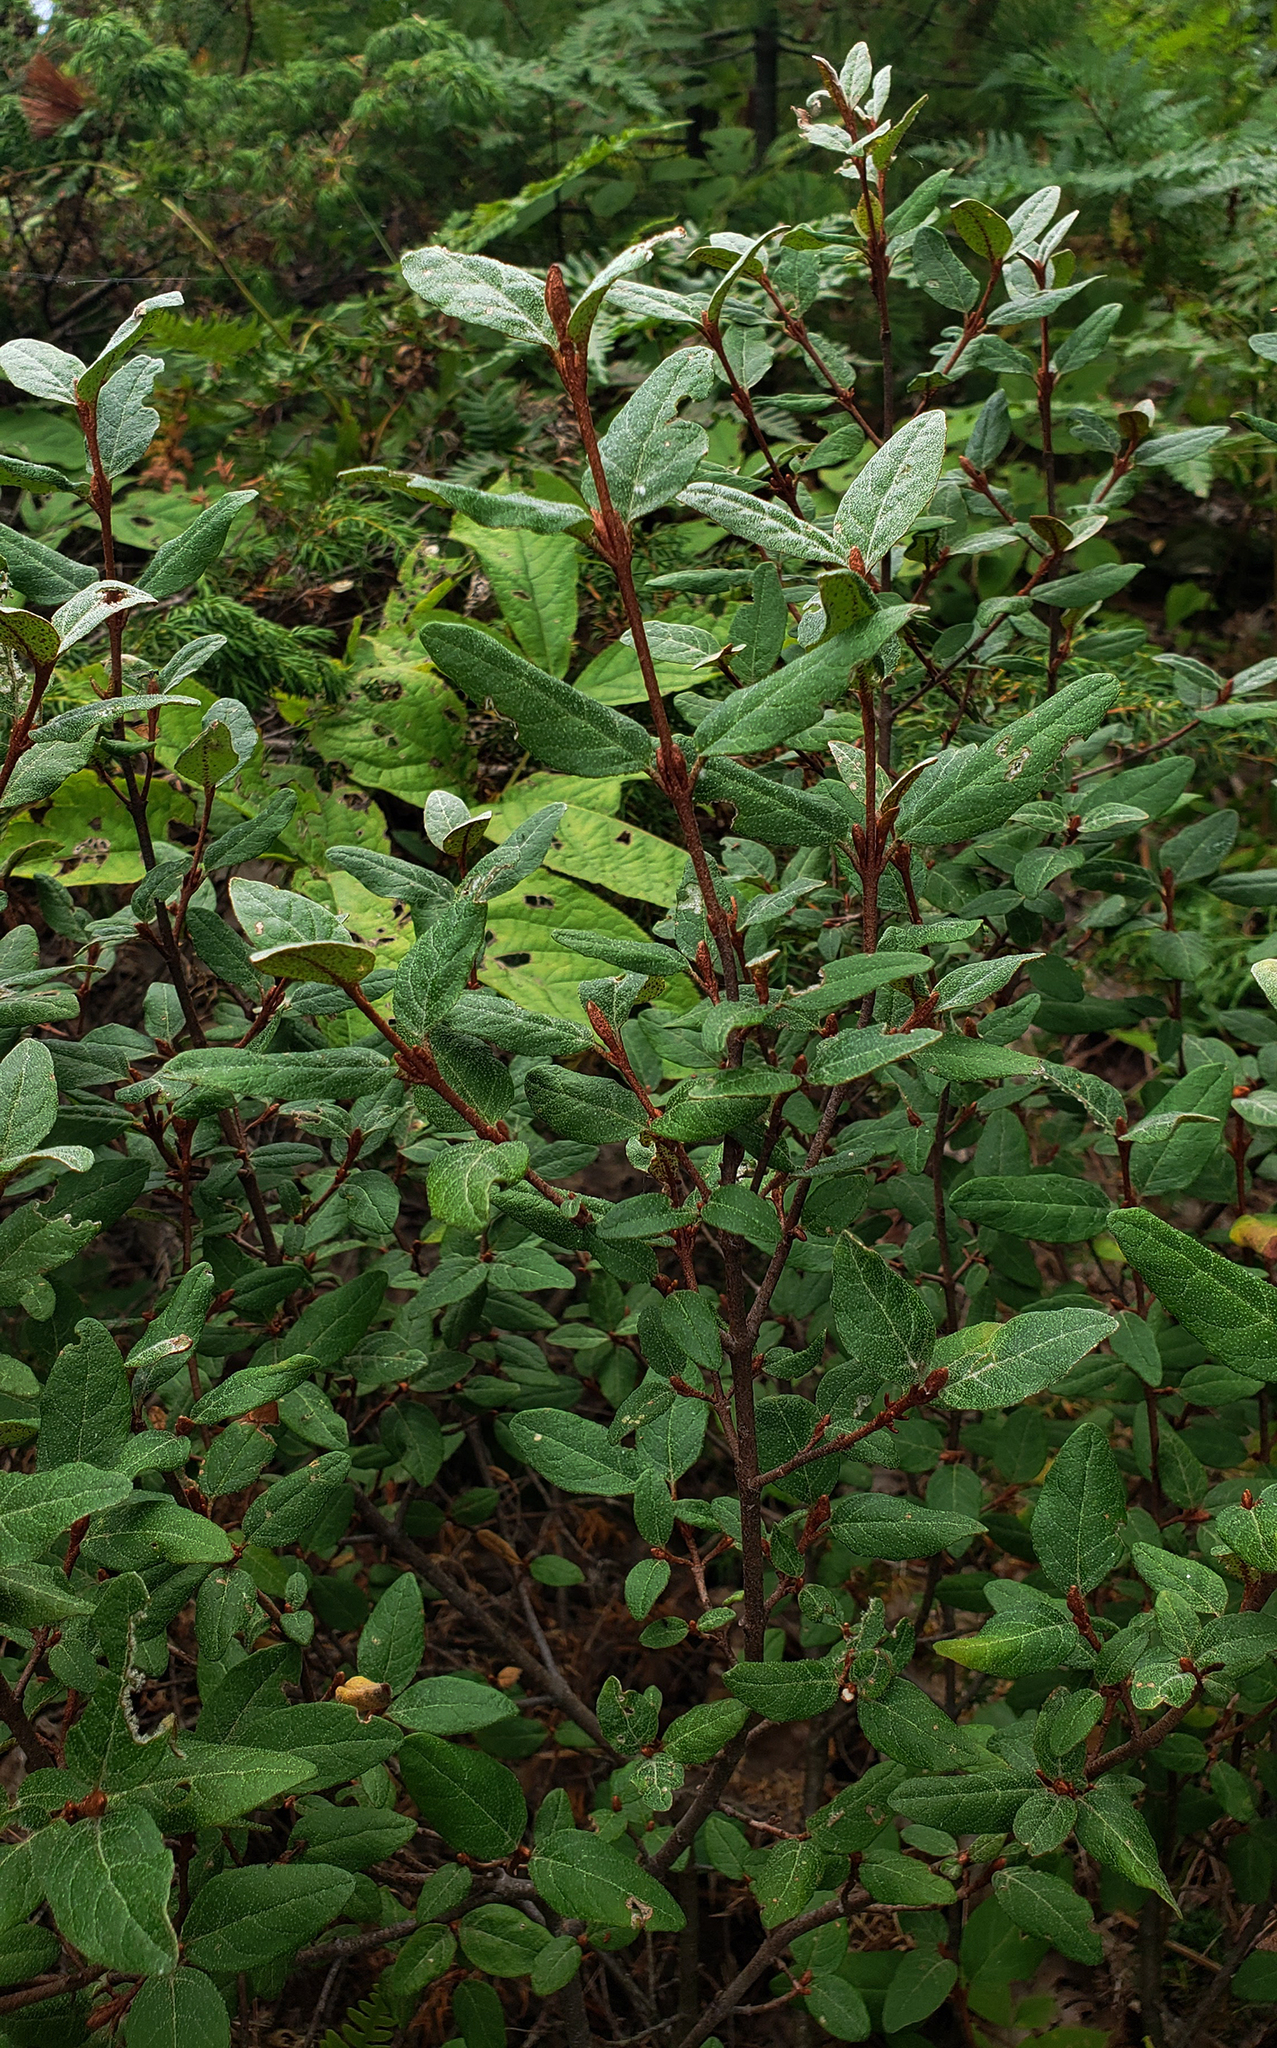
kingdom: Plantae
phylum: Tracheophyta
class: Magnoliopsida
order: Rosales
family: Elaeagnaceae
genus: Shepherdia
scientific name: Shepherdia canadensis
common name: Soapberry
